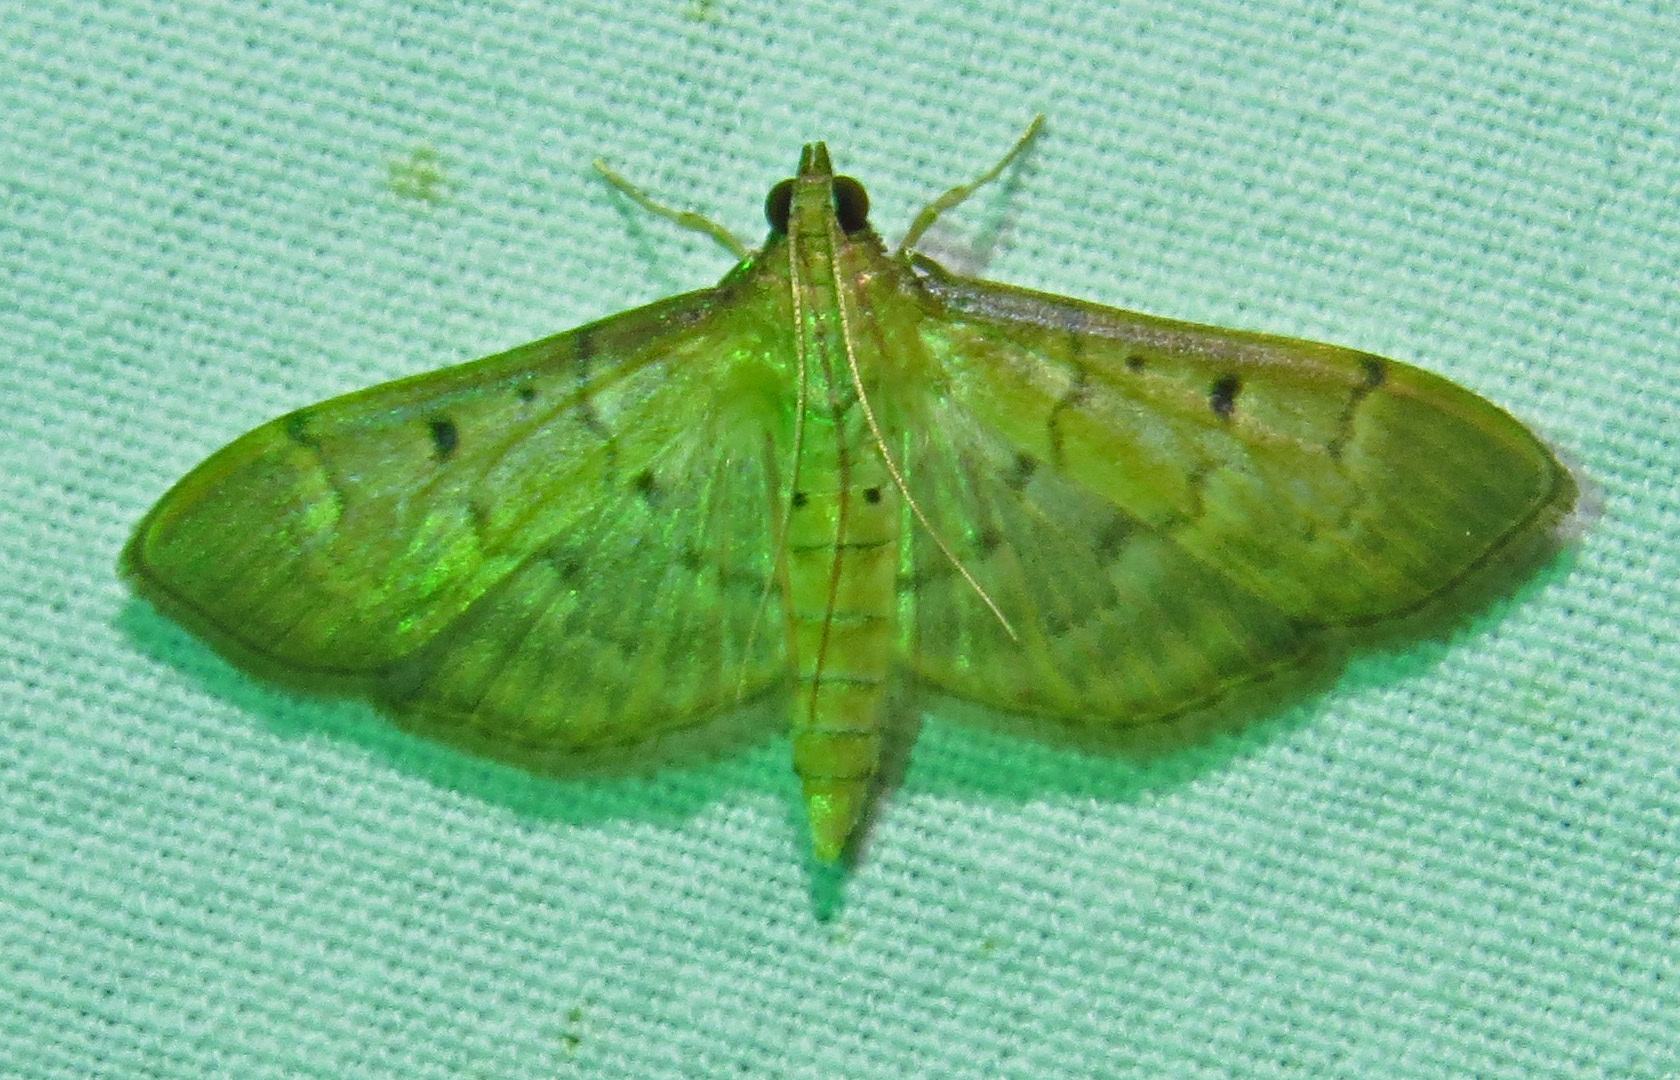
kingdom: Animalia
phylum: Arthropoda
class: Insecta
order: Lepidoptera
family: Crambidae
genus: Herpetogramma
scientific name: Herpetogramma bipunctalis
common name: Southern beet webworm
